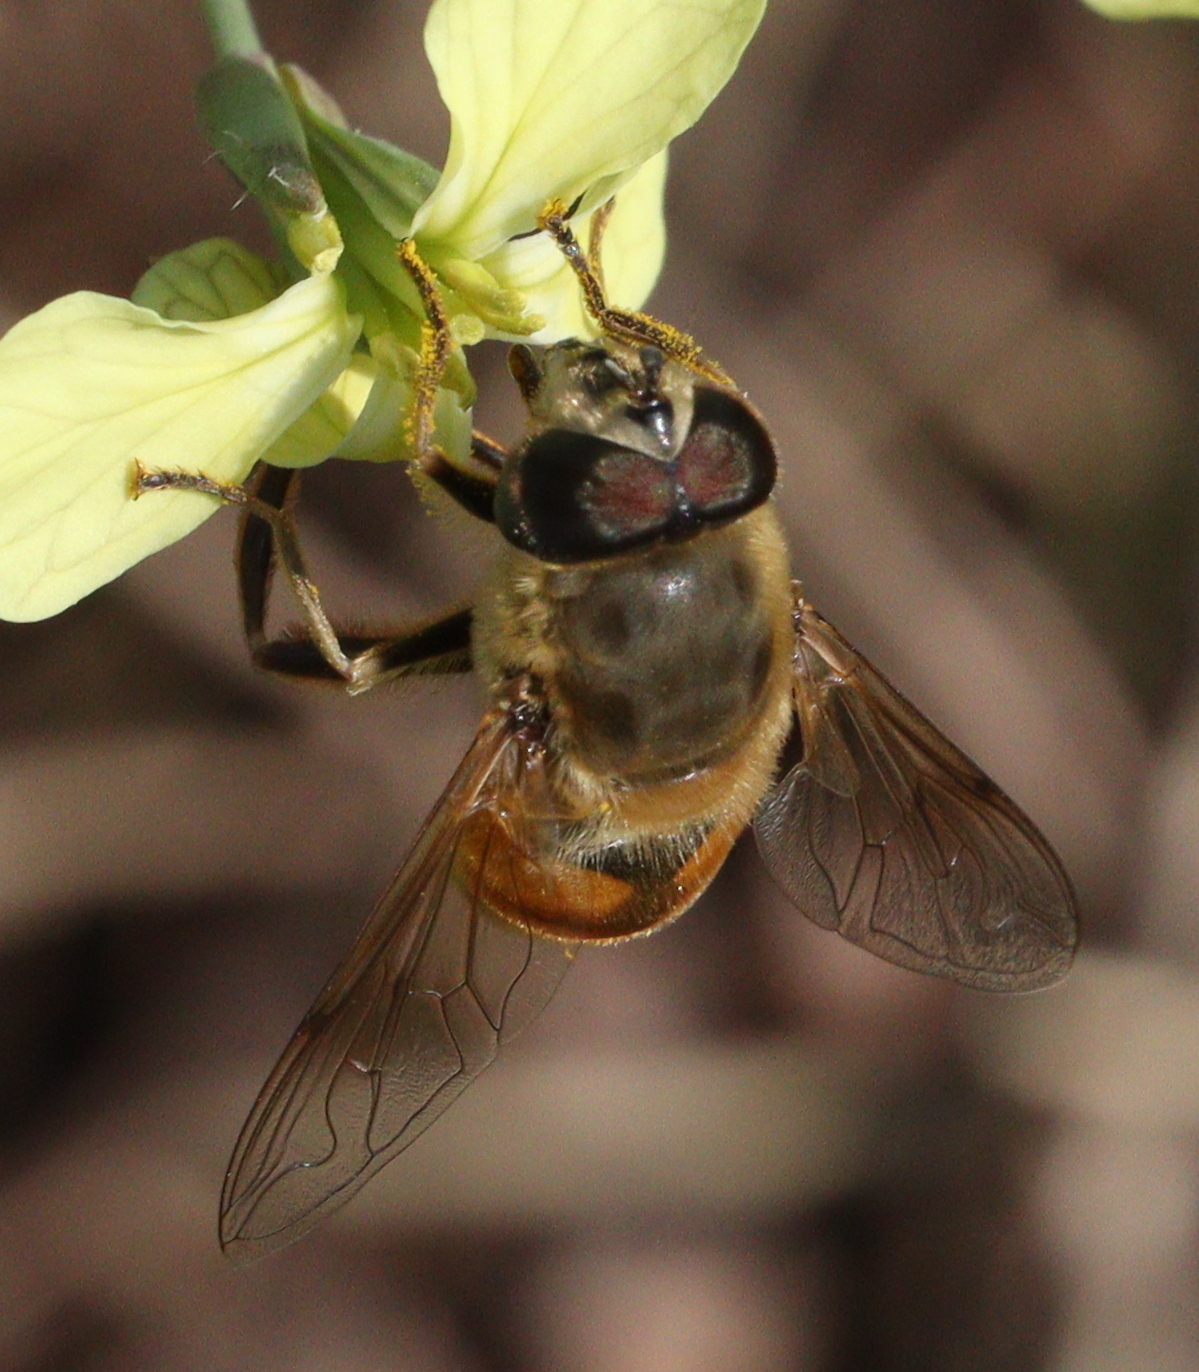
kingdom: Animalia
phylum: Arthropoda
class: Insecta
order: Diptera
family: Syrphidae
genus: Eristalis
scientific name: Eristalis tenax
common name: Drone fly
